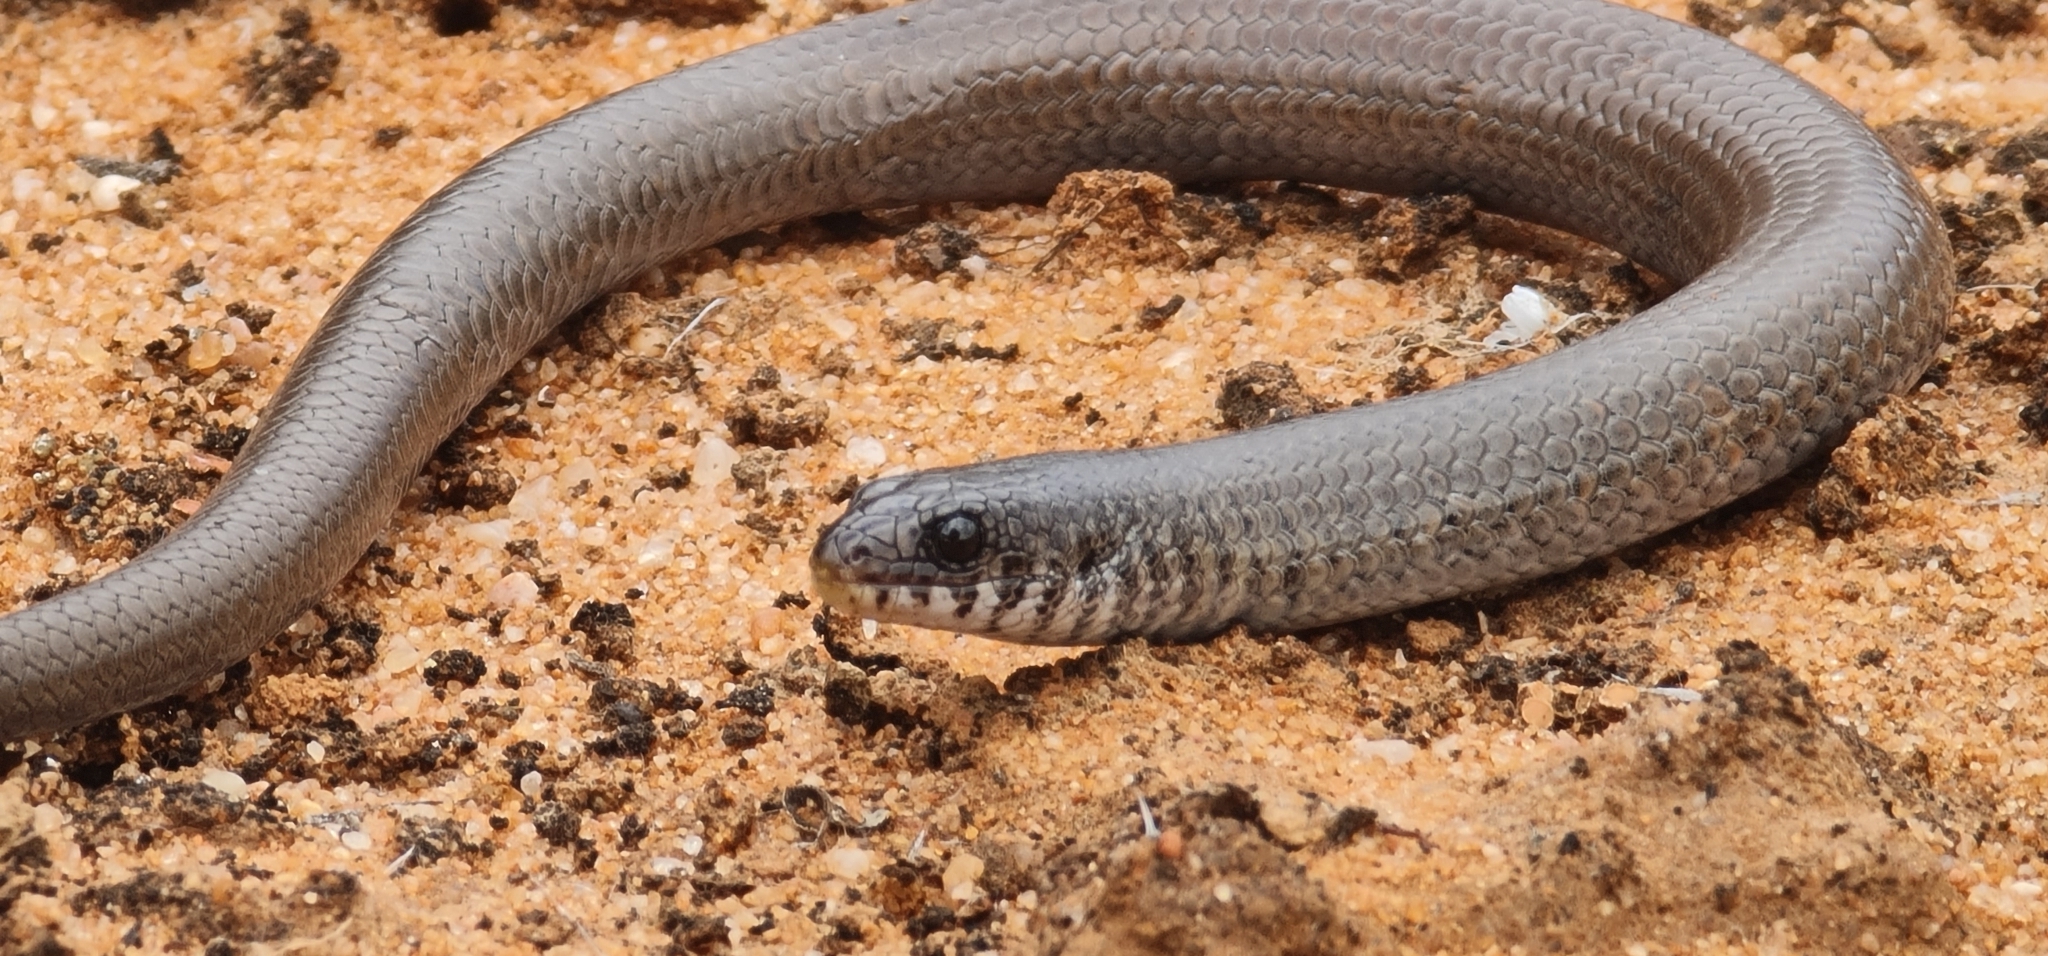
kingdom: Animalia
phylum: Chordata
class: Squamata
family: Pygopodidae
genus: Delma
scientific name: Delma australis
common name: Marble-faced delma
